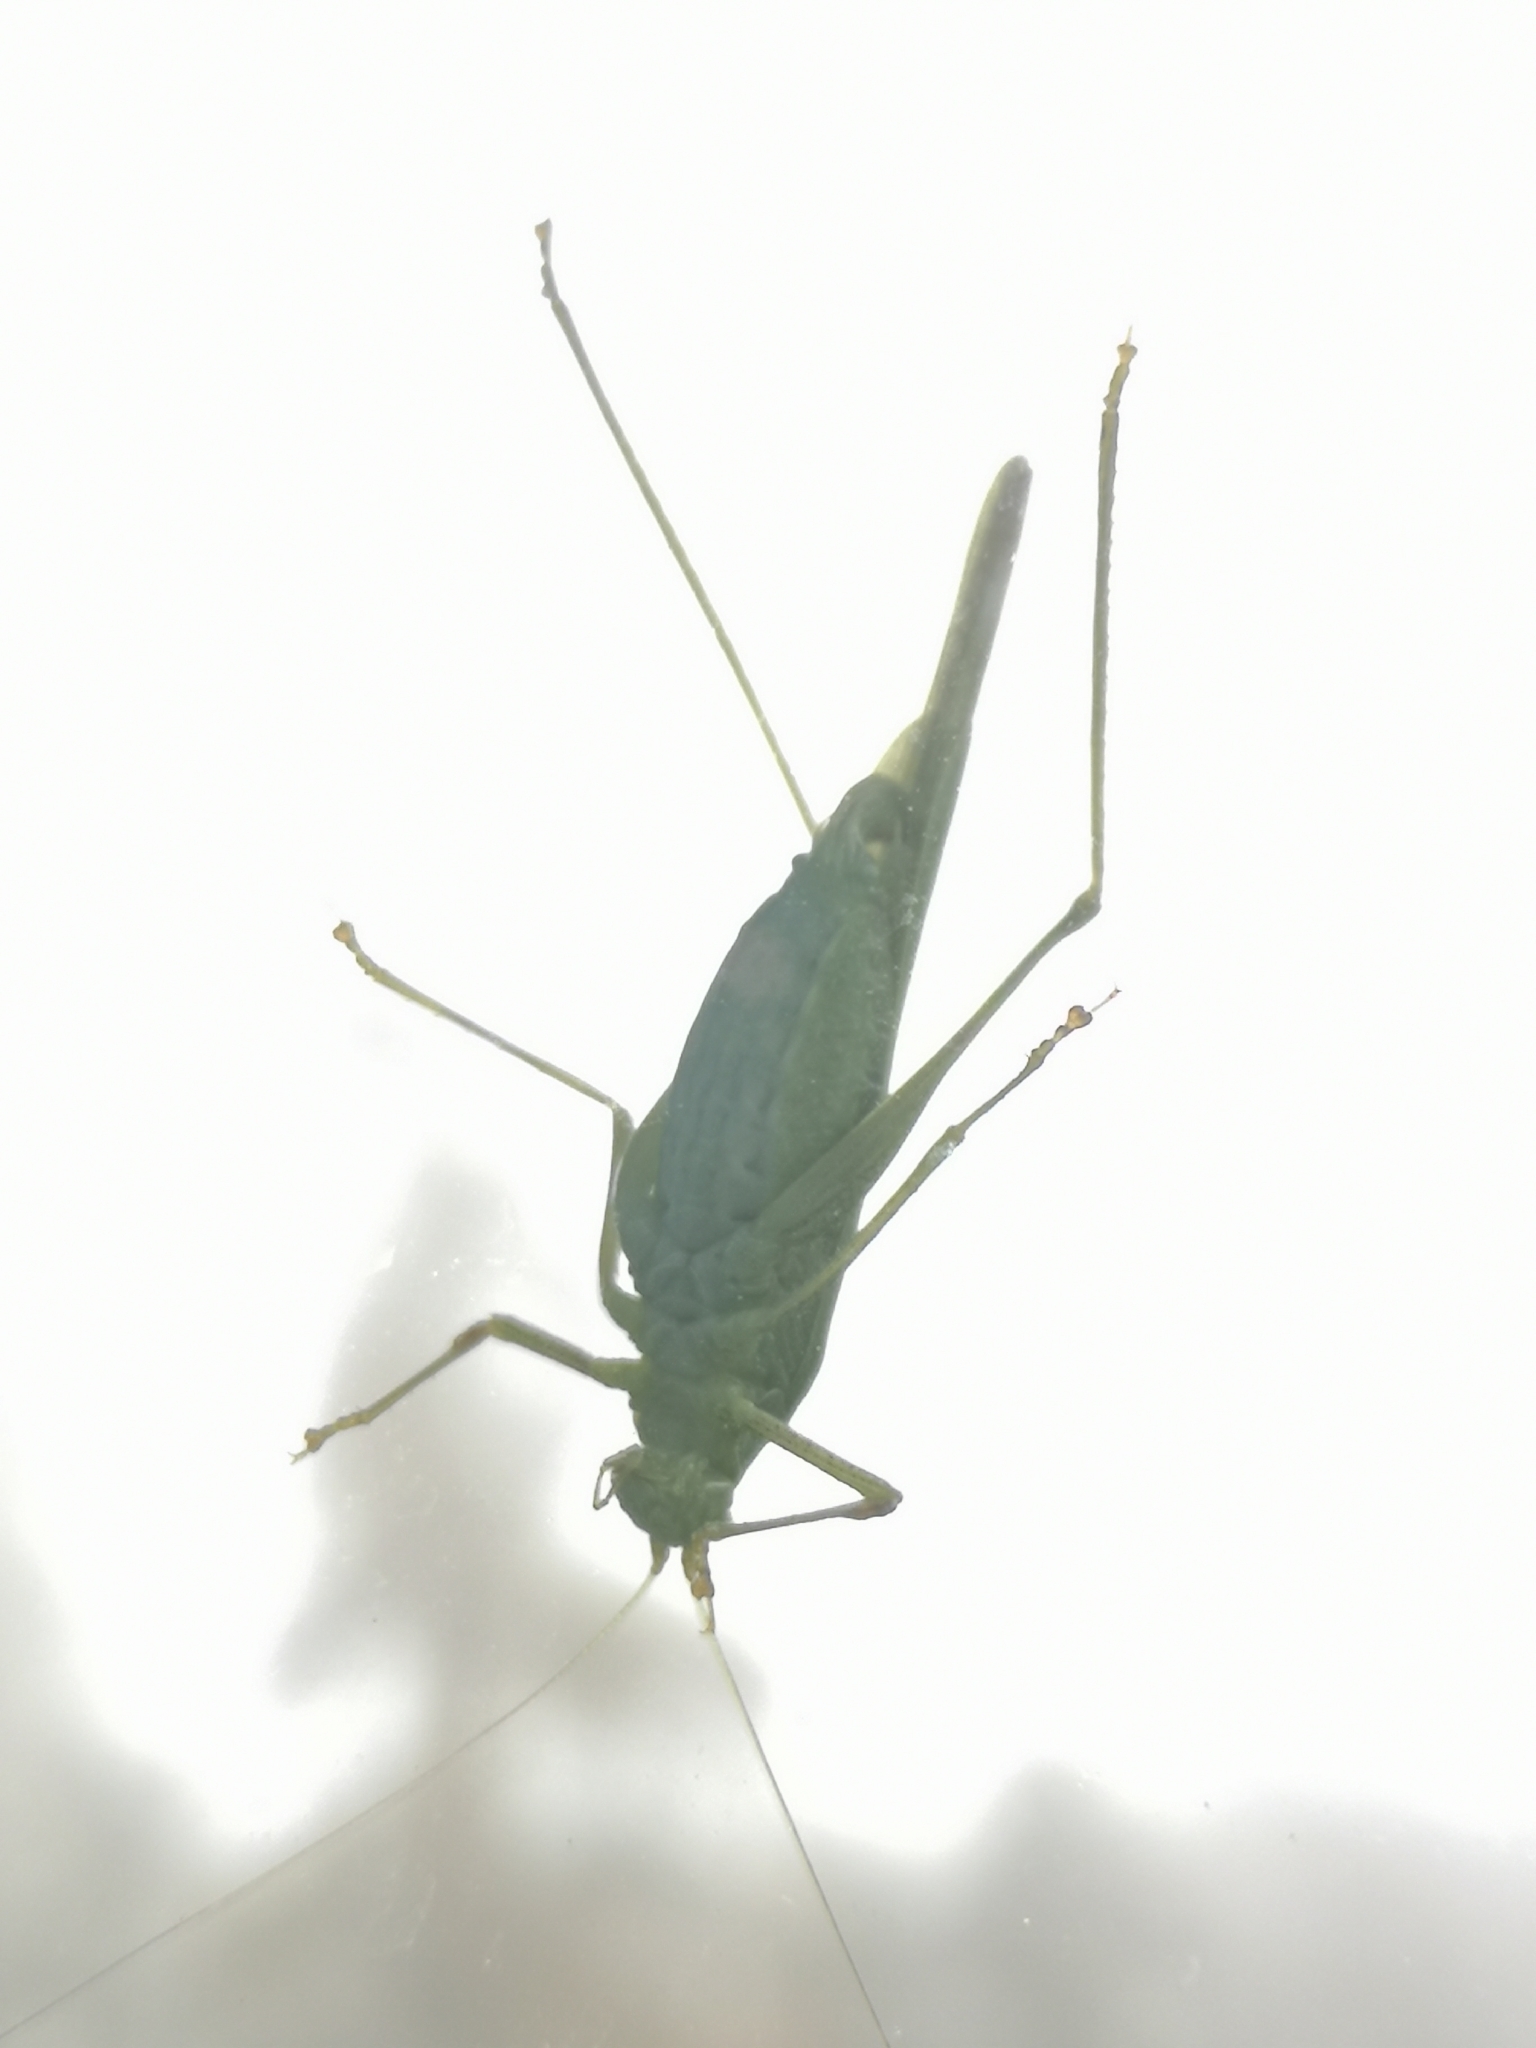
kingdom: Animalia
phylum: Arthropoda
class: Insecta
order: Orthoptera
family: Tettigoniidae
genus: Phaneroptera
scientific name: Phaneroptera nana
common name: Southern sickle bush-cricket
